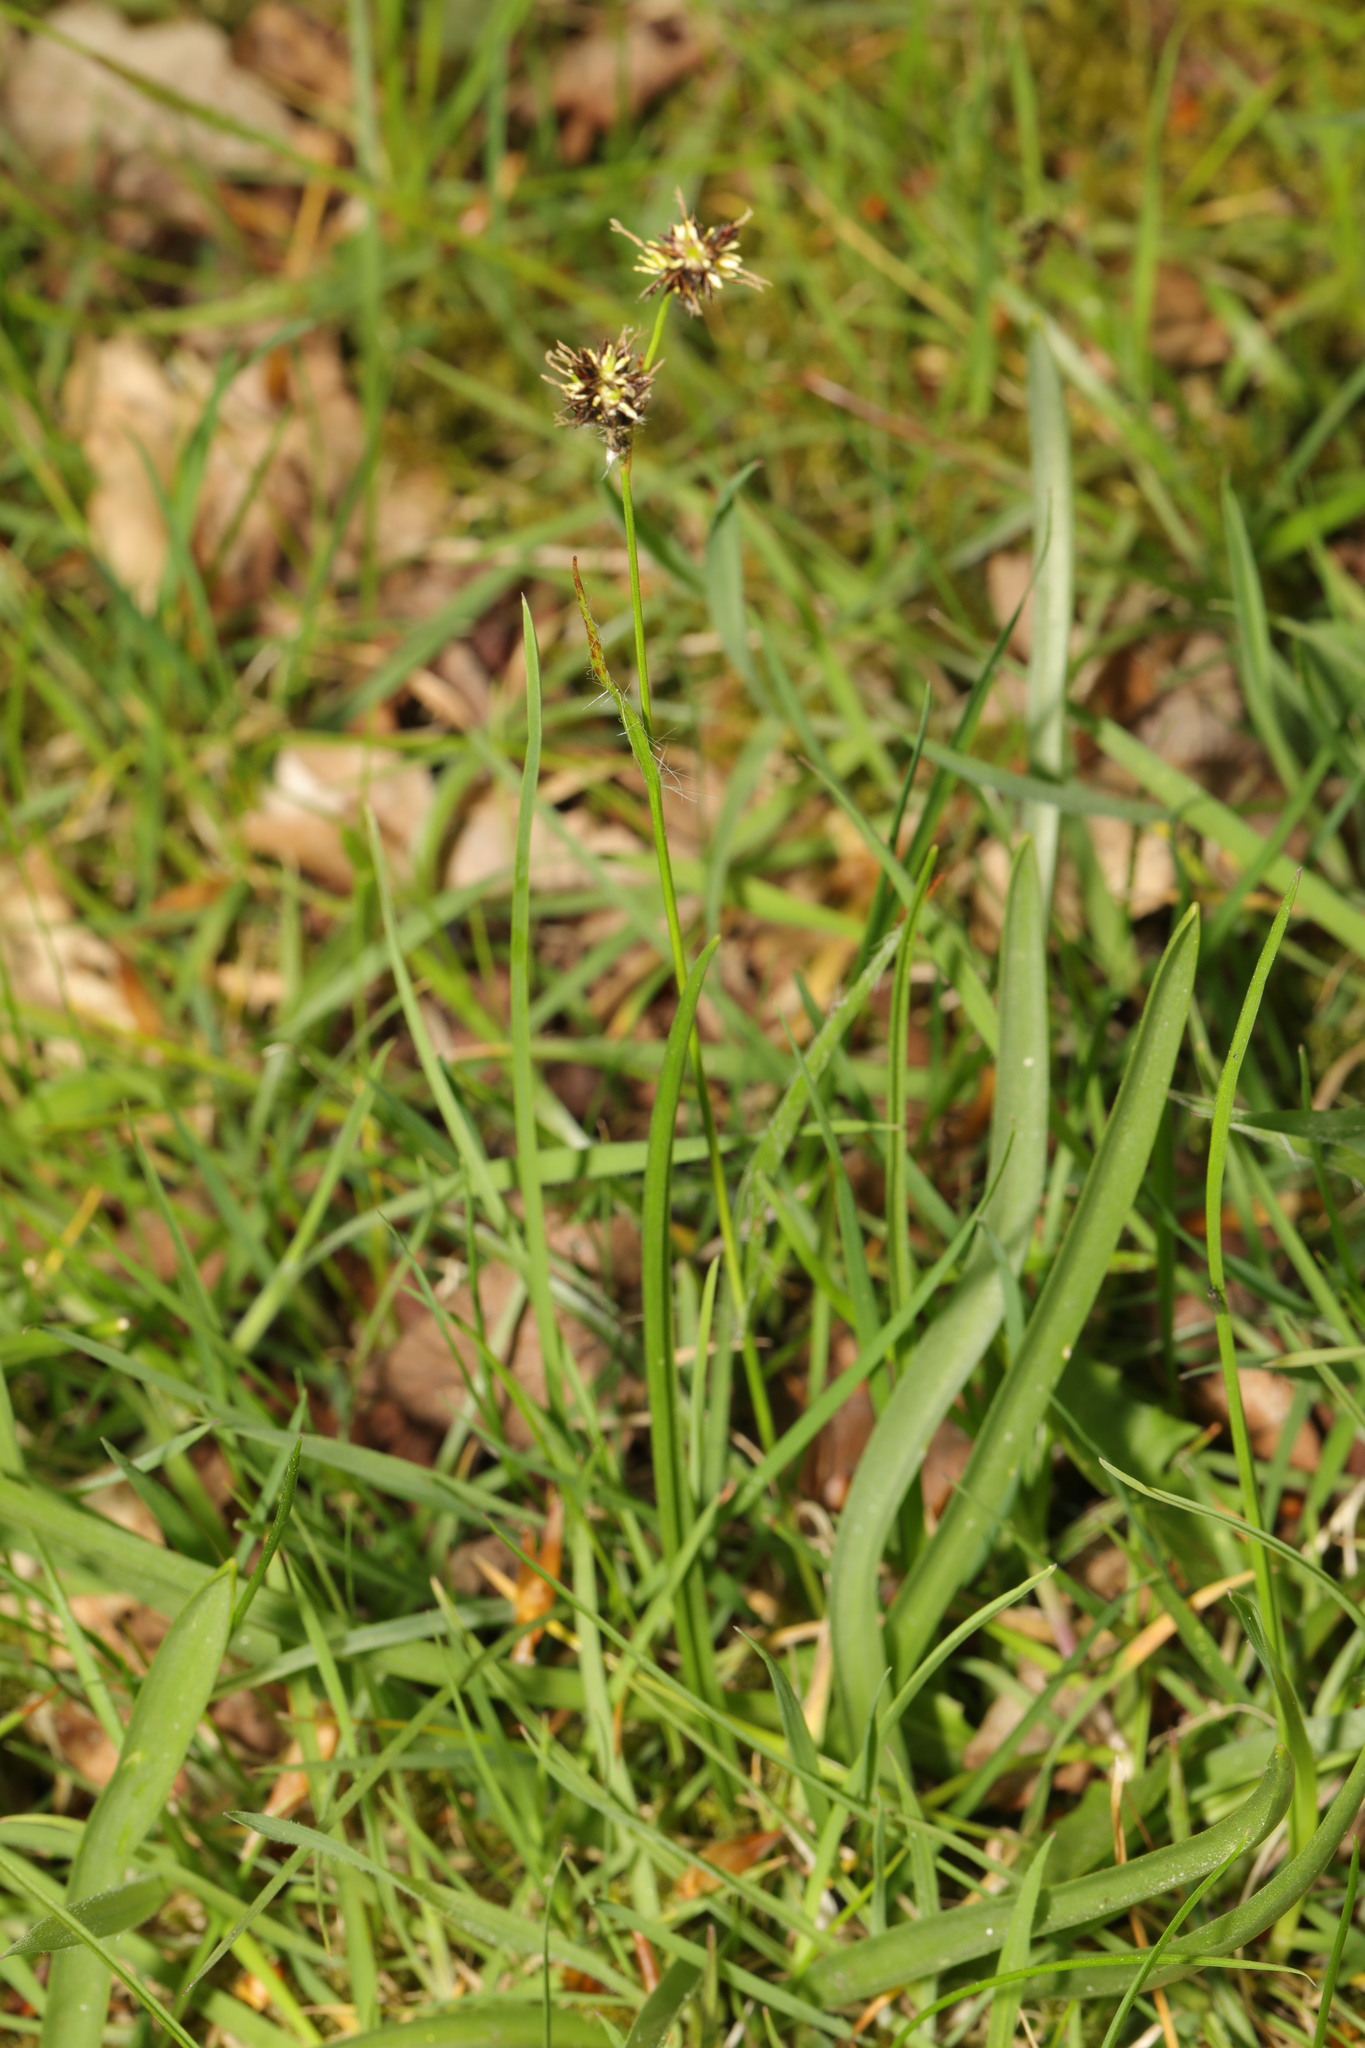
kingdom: Plantae
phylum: Tracheophyta
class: Liliopsida
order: Poales
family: Juncaceae
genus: Luzula
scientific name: Luzula campestris
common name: Field wood-rush
